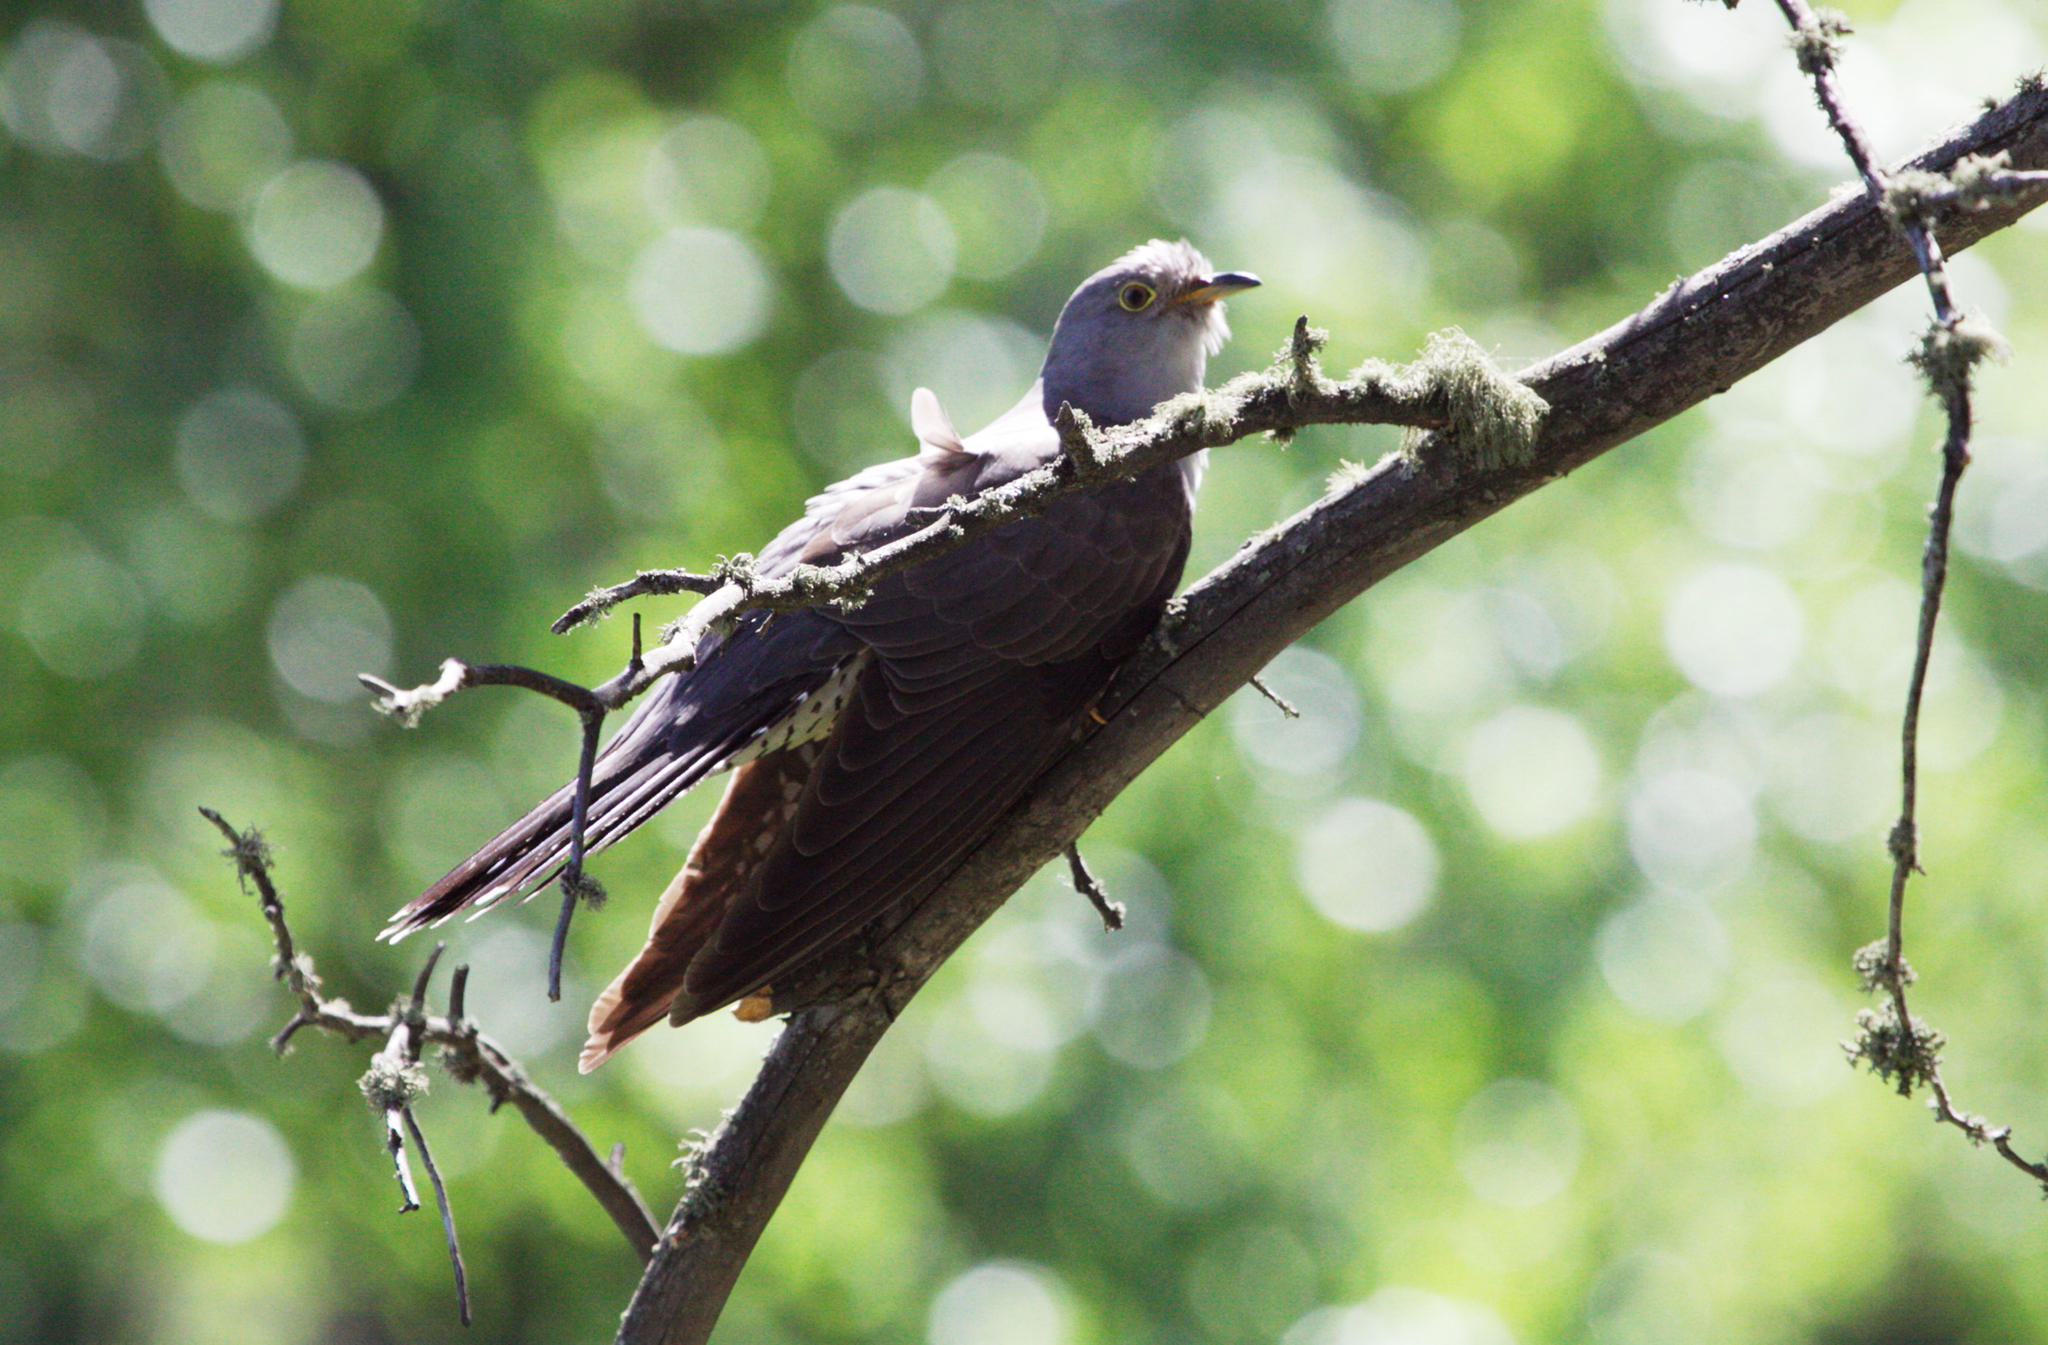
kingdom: Animalia
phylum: Chordata
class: Aves
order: Cuculiformes
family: Cuculidae
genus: Cuculus
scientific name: Cuculus canorus
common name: Common cuckoo
